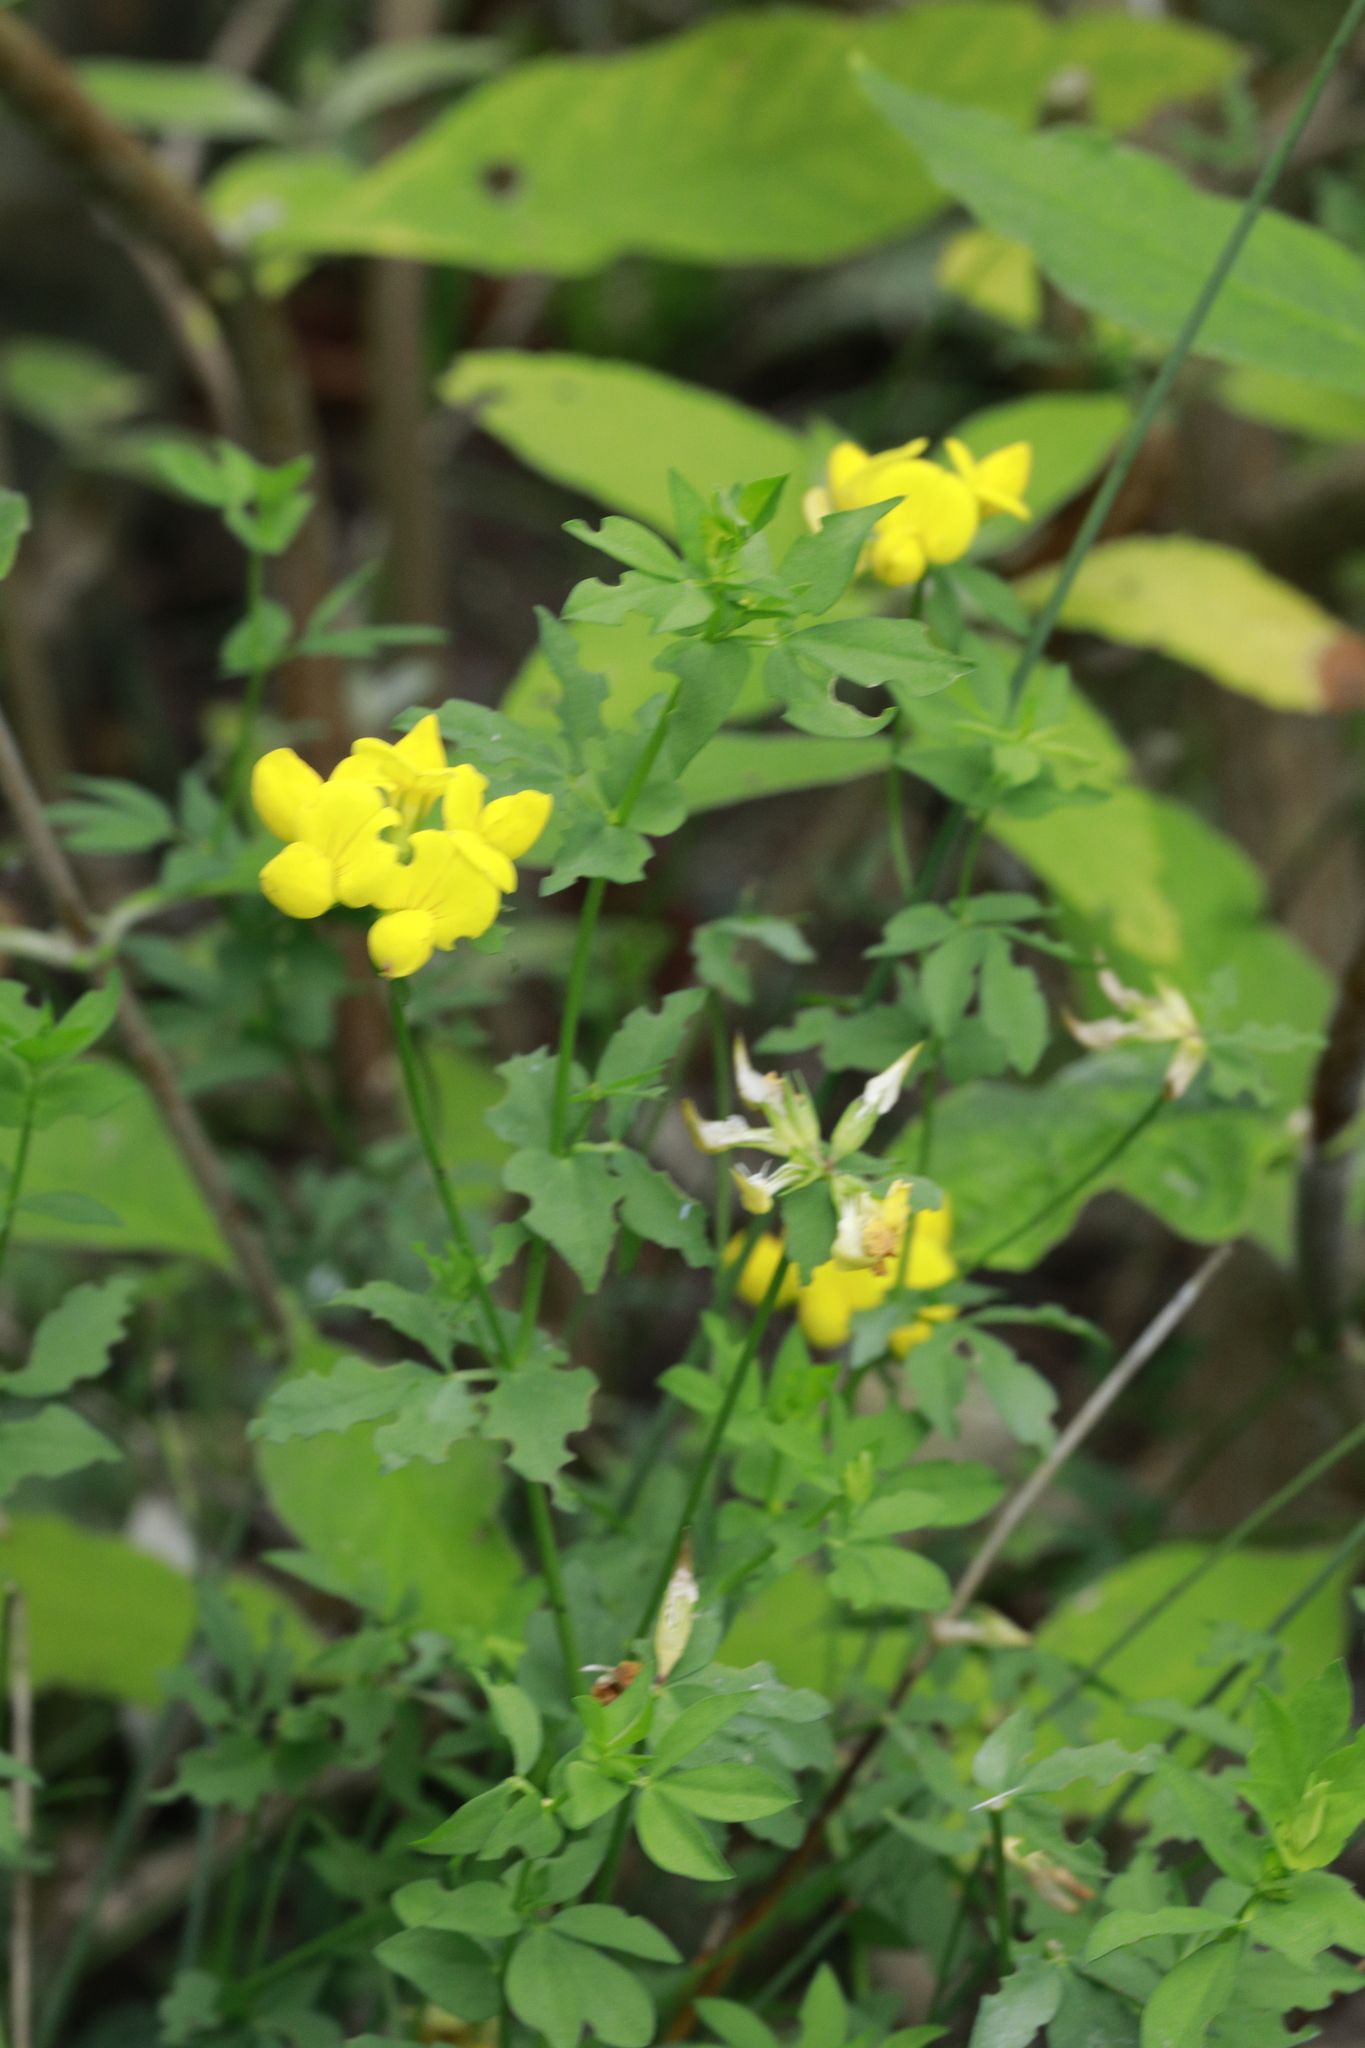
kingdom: Plantae
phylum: Tracheophyta
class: Magnoliopsida
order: Fabales
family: Fabaceae
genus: Lotus
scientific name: Lotus corniculatus
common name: Common bird's-foot-trefoil
